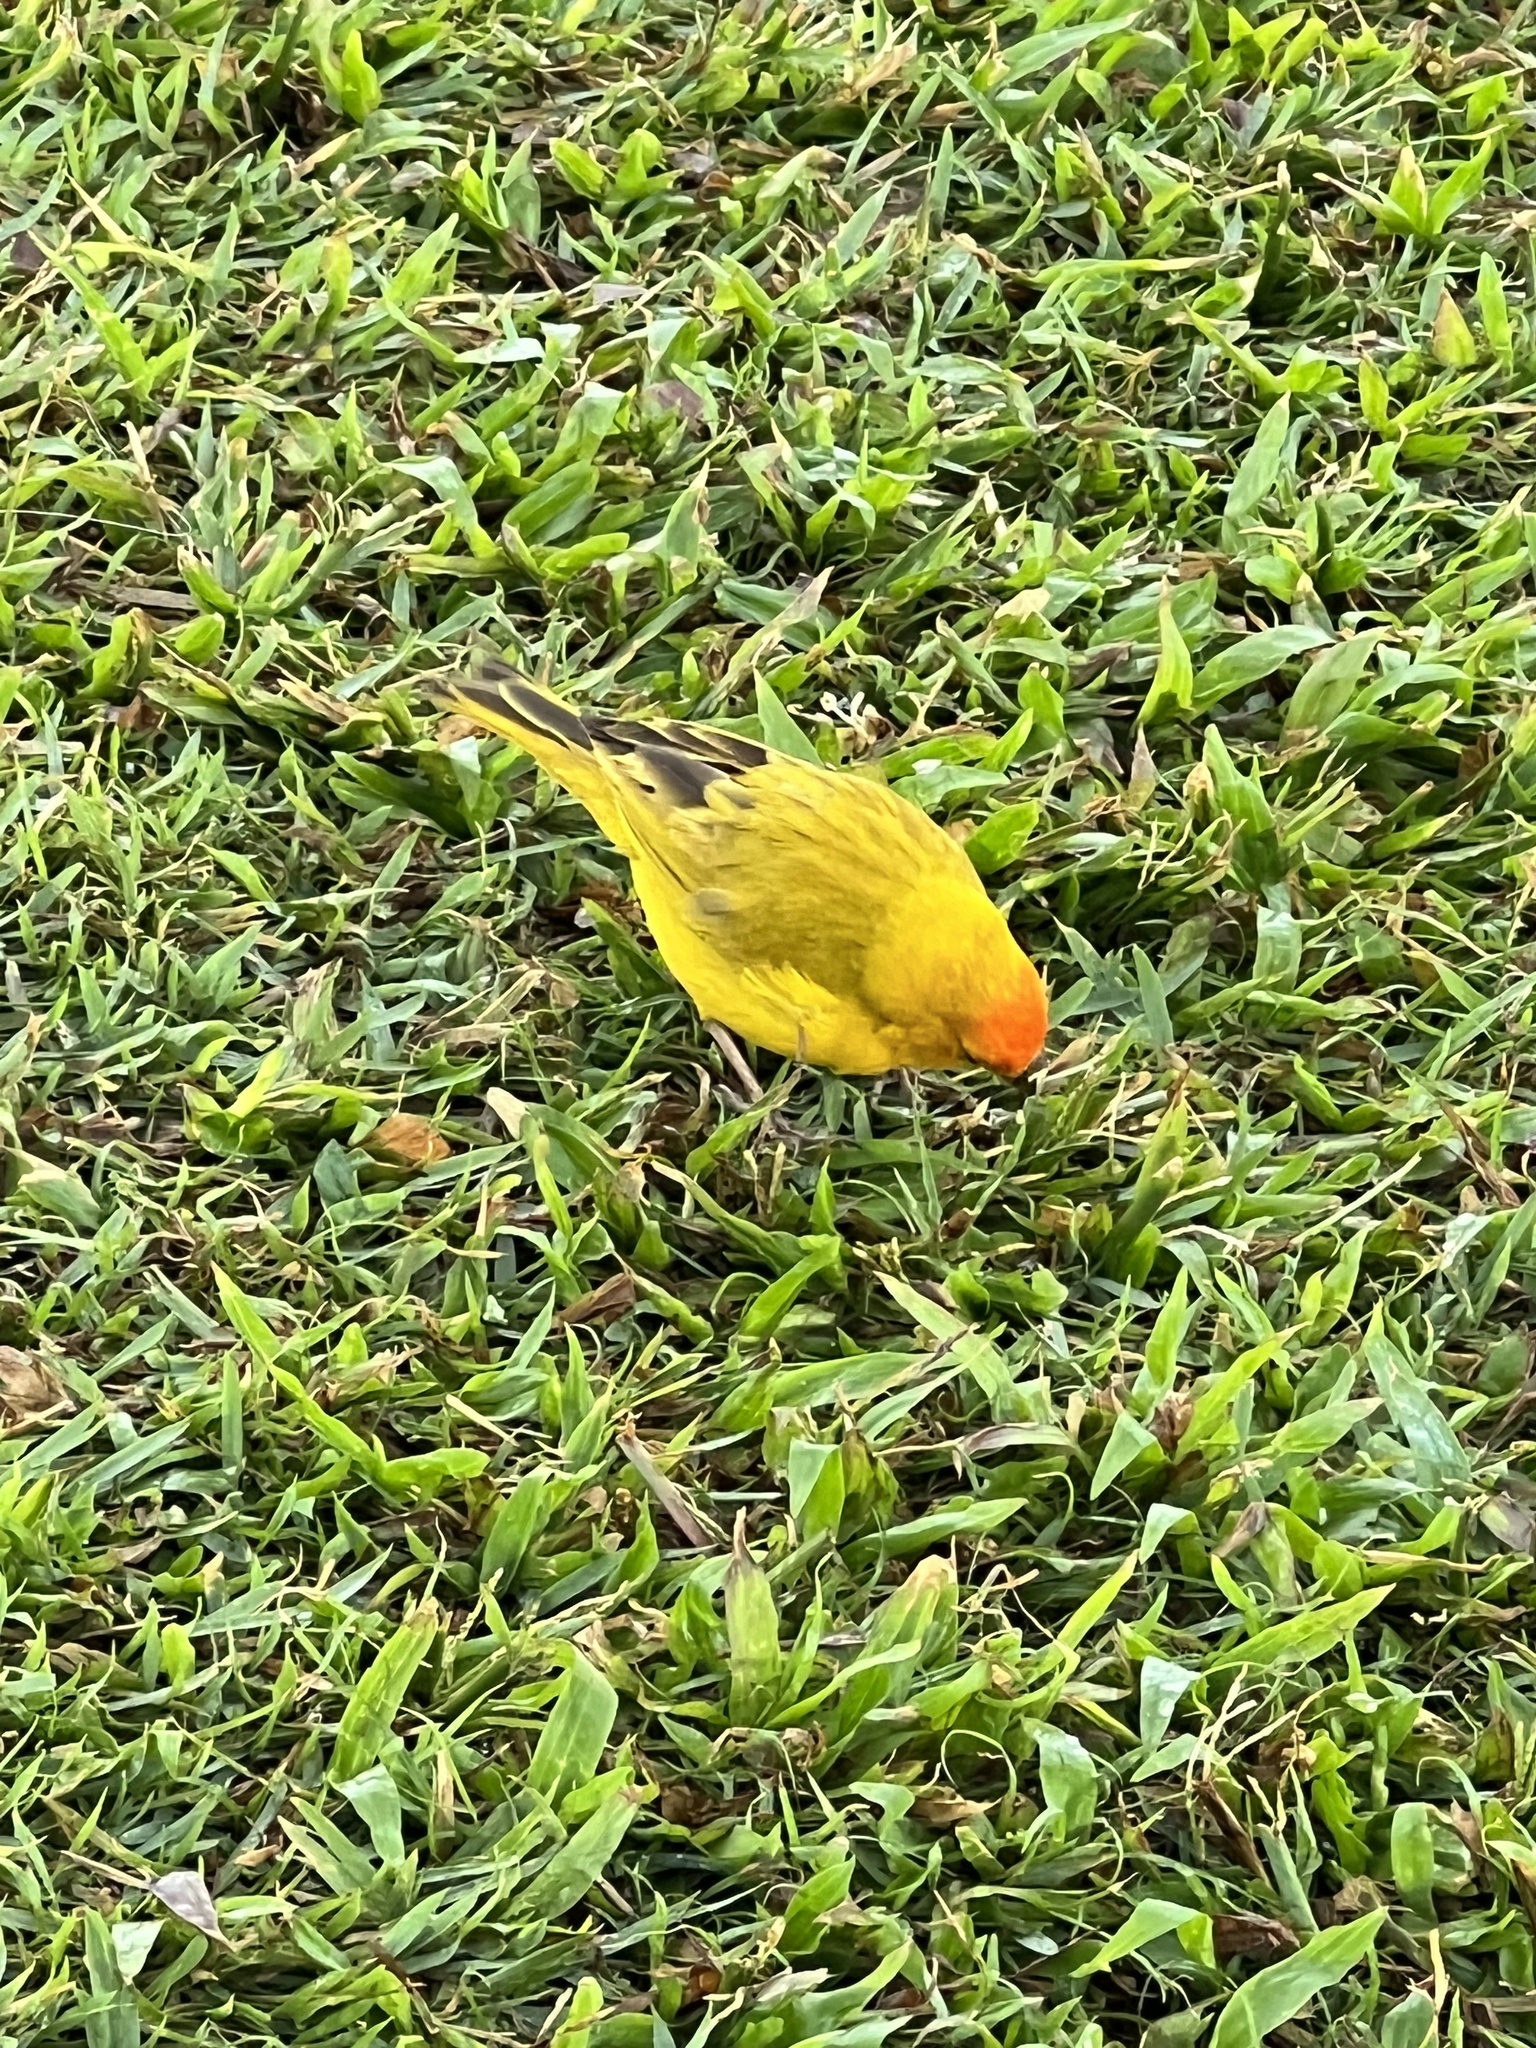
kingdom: Animalia
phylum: Chordata
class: Aves
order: Passeriformes
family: Thraupidae
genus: Sicalis
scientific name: Sicalis flaveola
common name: Saffron finch
